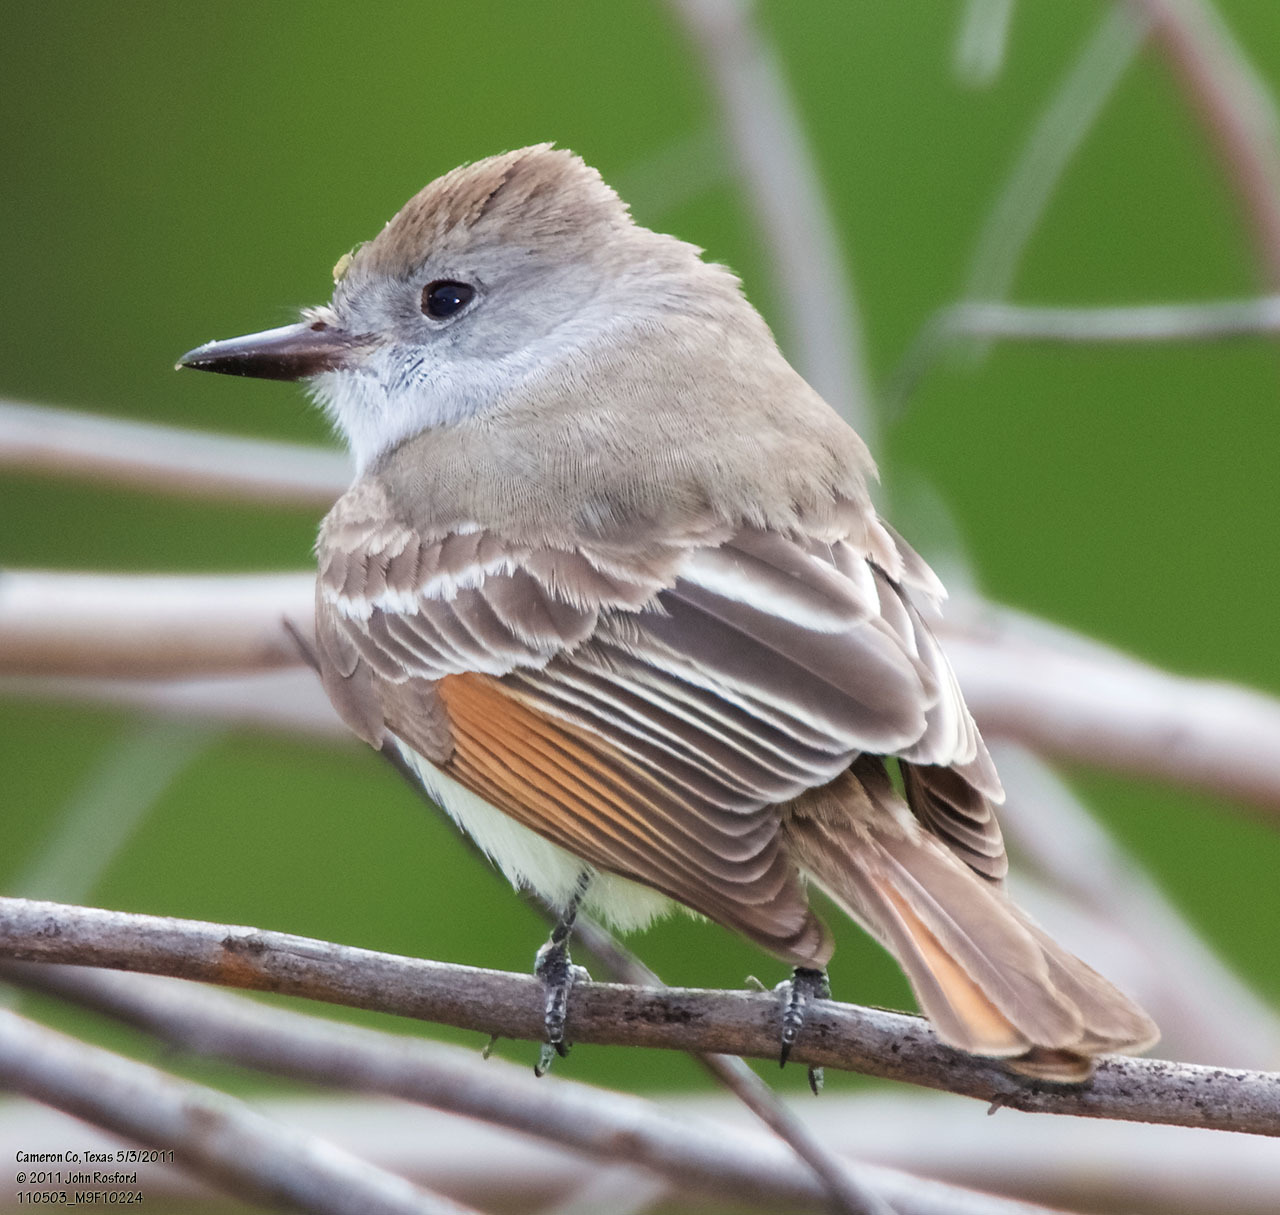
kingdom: Animalia
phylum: Chordata
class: Aves
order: Passeriformes
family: Tyrannidae
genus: Myiarchus
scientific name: Myiarchus cinerascens
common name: Ash-throated flycatcher
